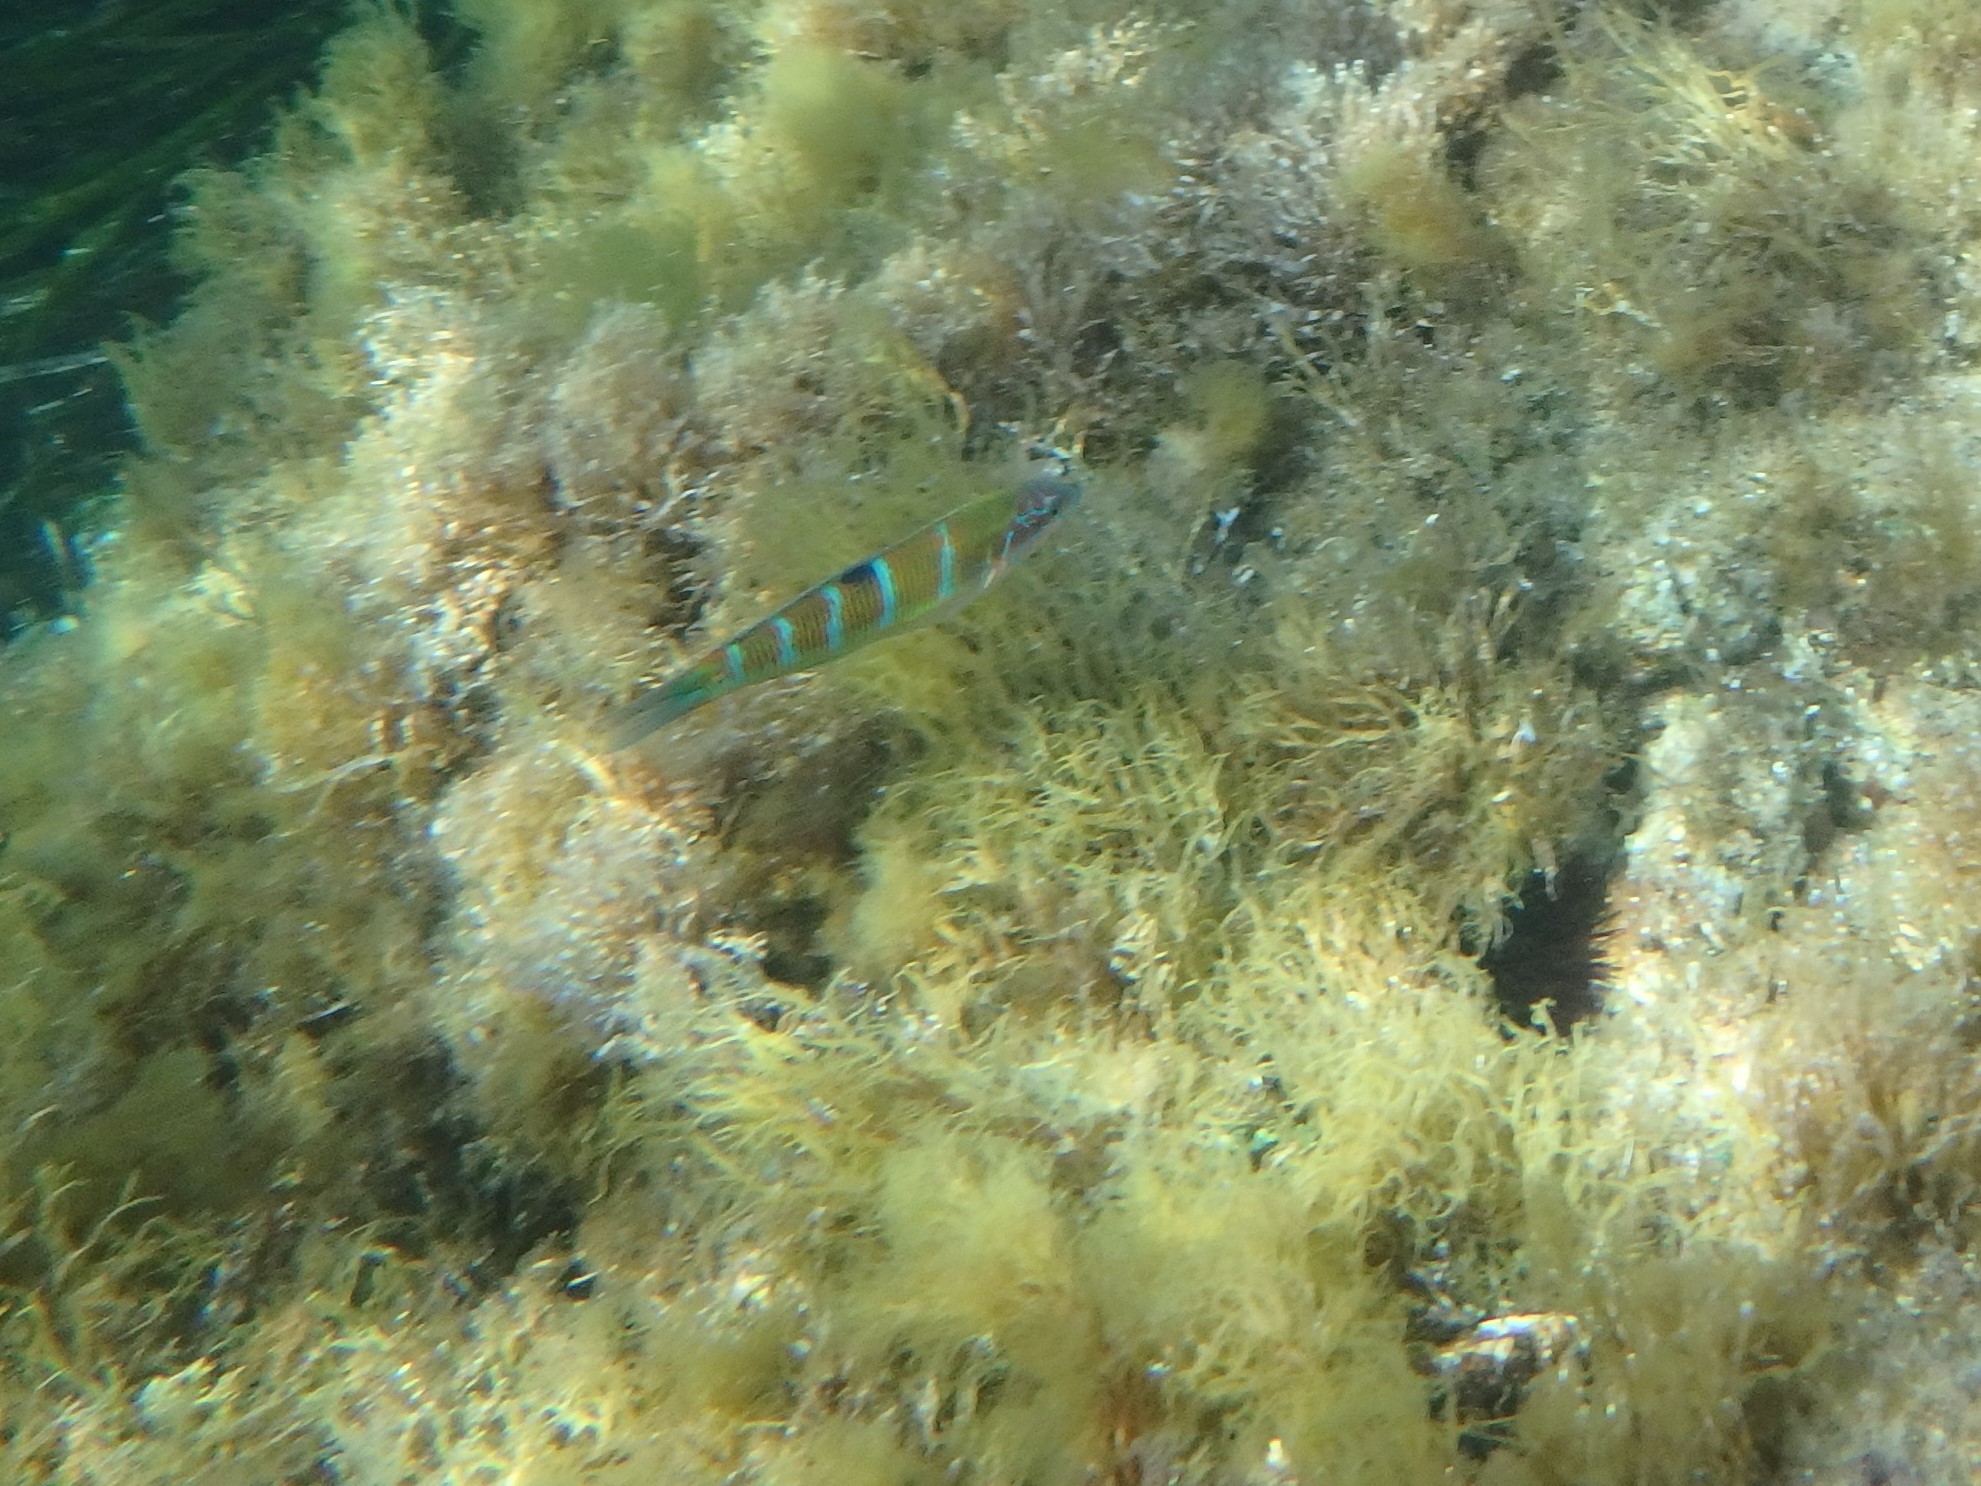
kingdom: Animalia
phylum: Chordata
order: Perciformes
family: Labridae
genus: Thalassoma
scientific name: Thalassoma pavo
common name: Ornate wrasse
